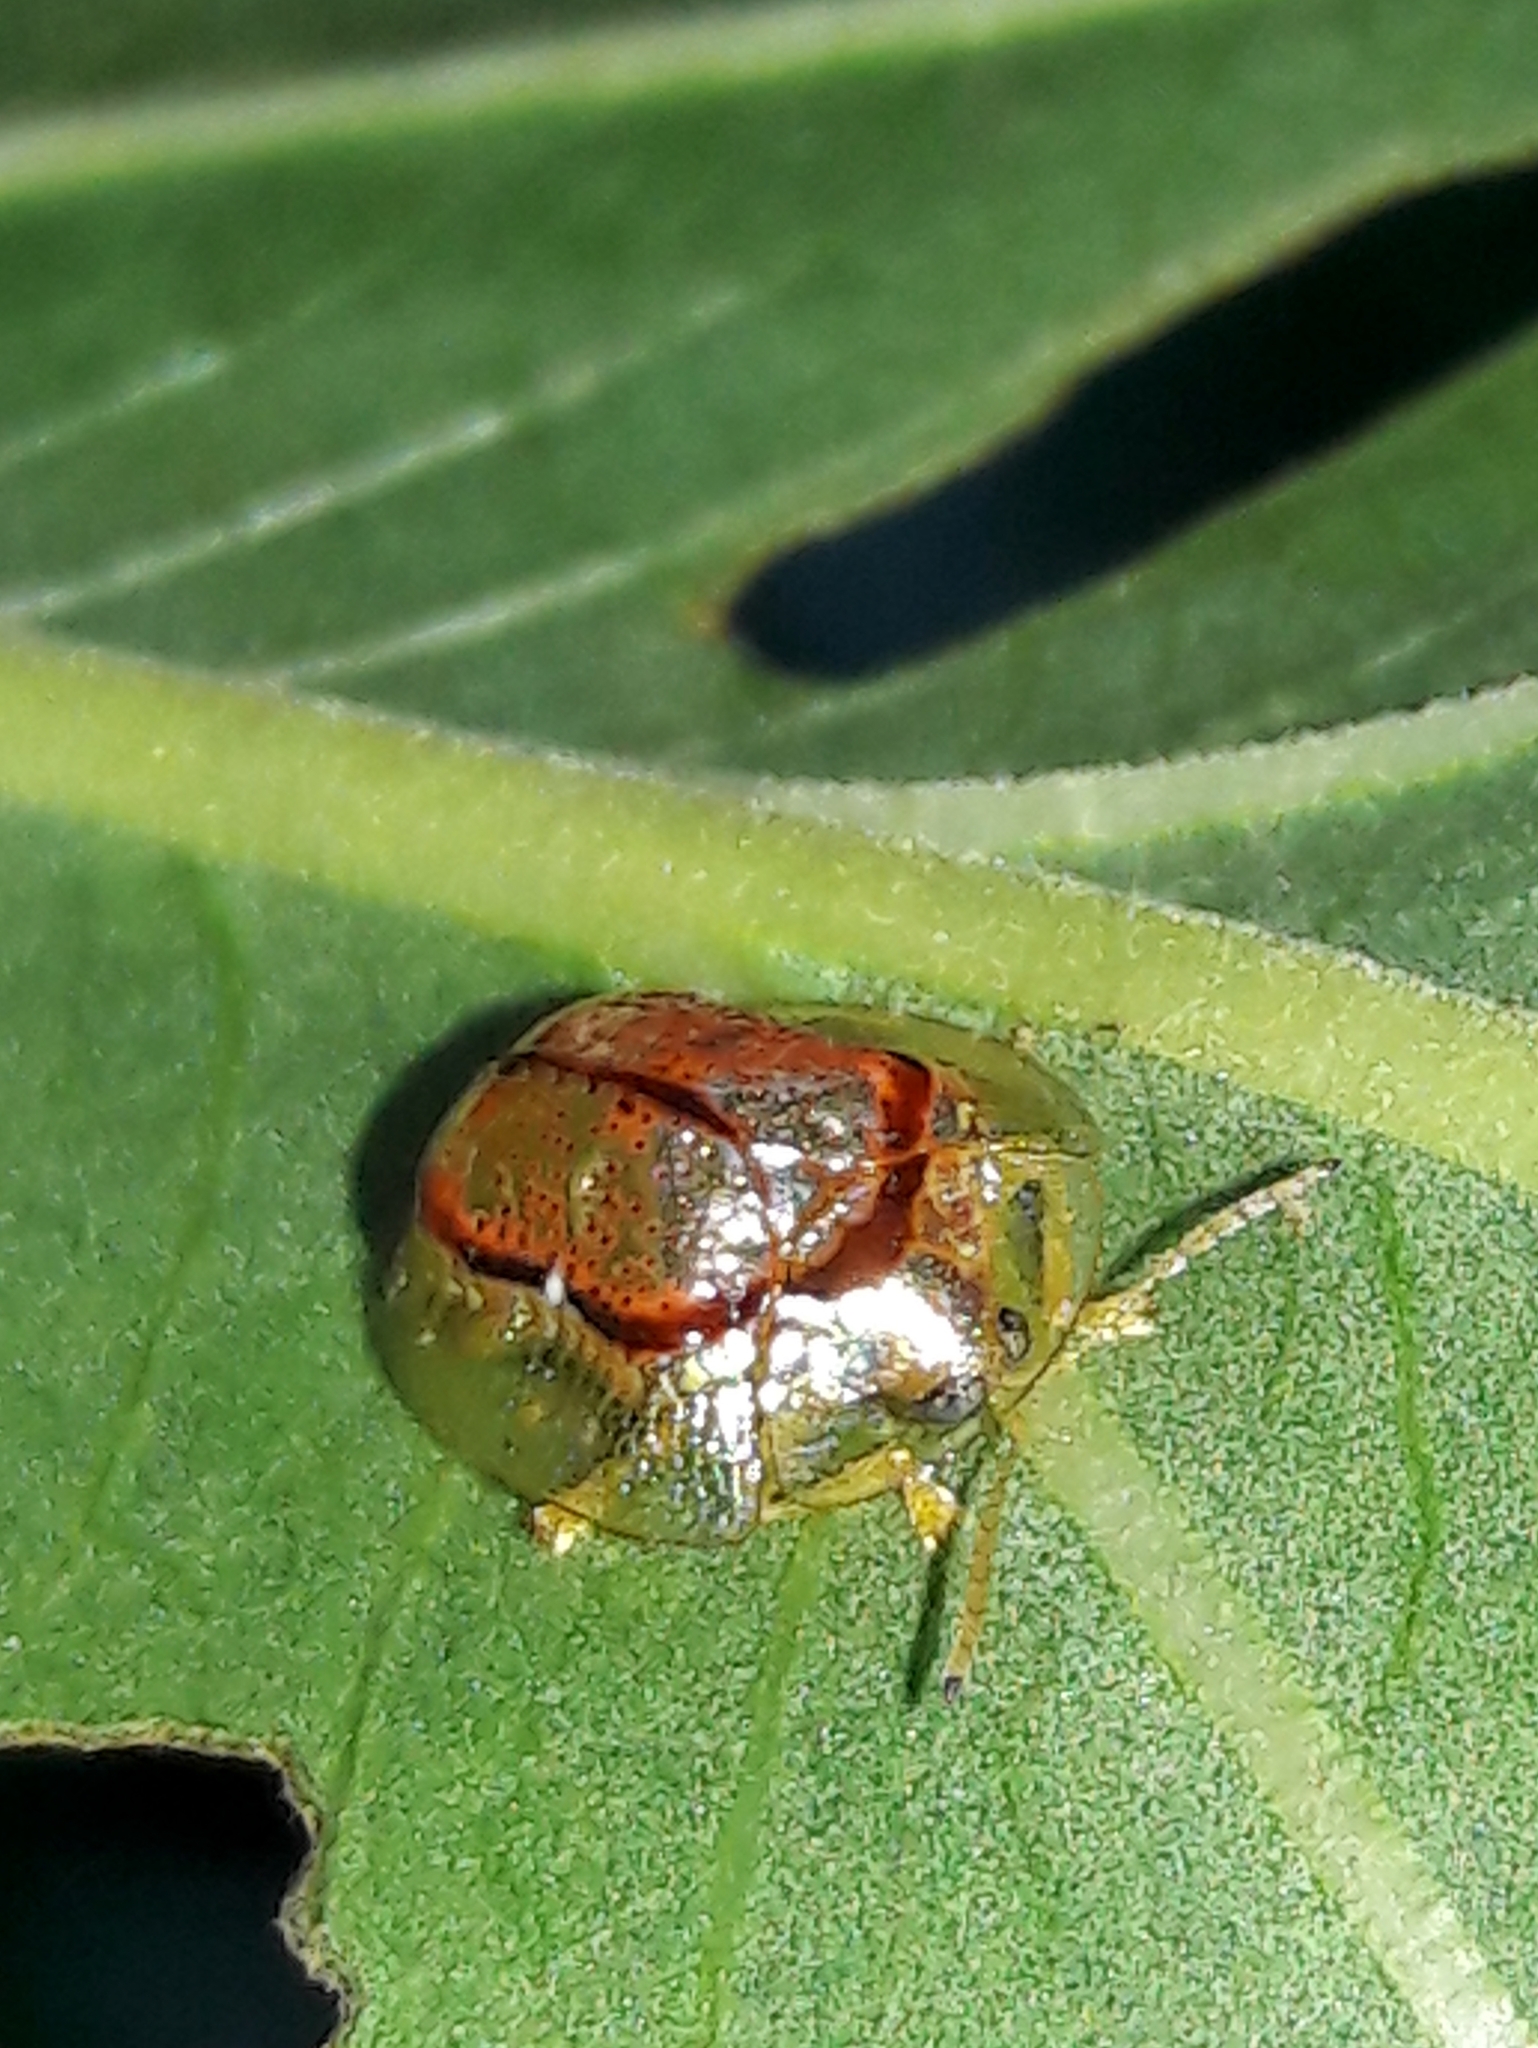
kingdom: Animalia
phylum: Arthropoda
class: Insecta
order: Coleoptera
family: Chrysomelidae
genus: Microctenochira
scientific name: Microctenochira quadrata
